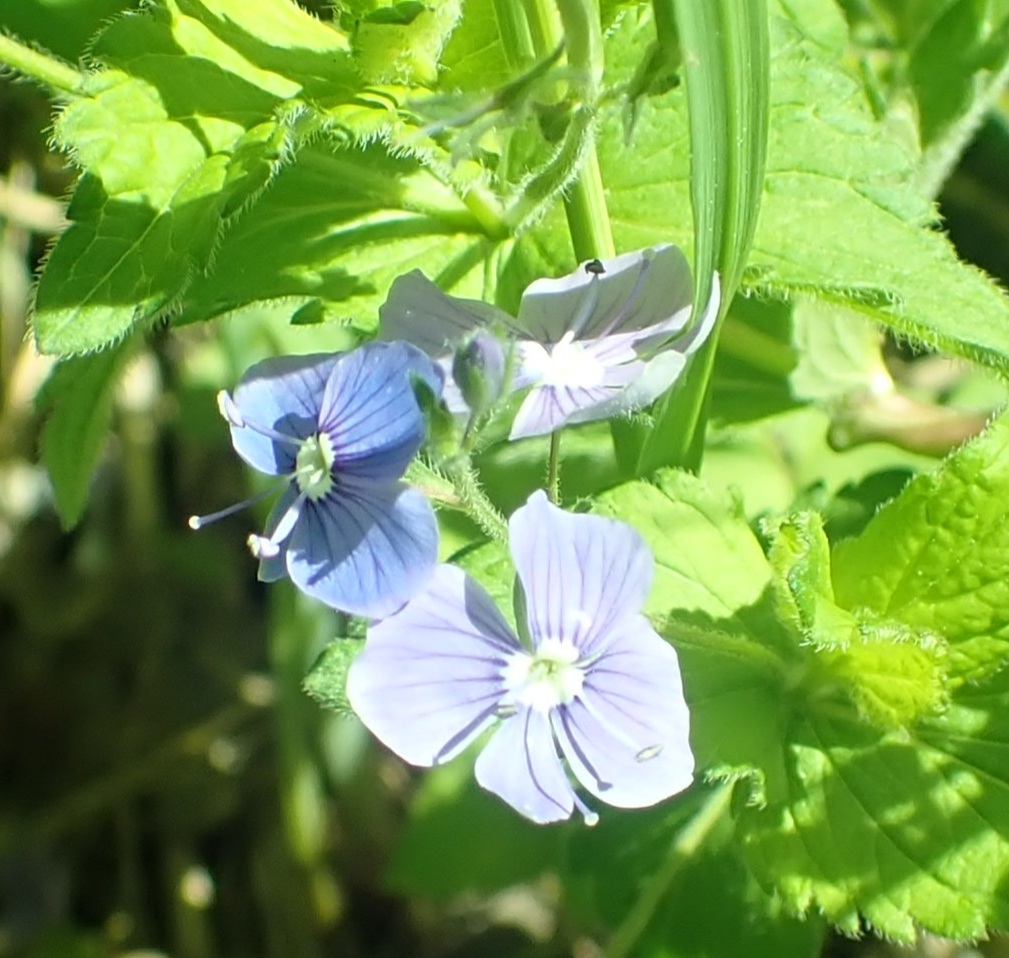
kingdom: Plantae
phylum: Tracheophyta
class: Magnoliopsida
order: Lamiales
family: Plantaginaceae
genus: Veronica
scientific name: Veronica chamaedrys
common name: Germander speedwell
